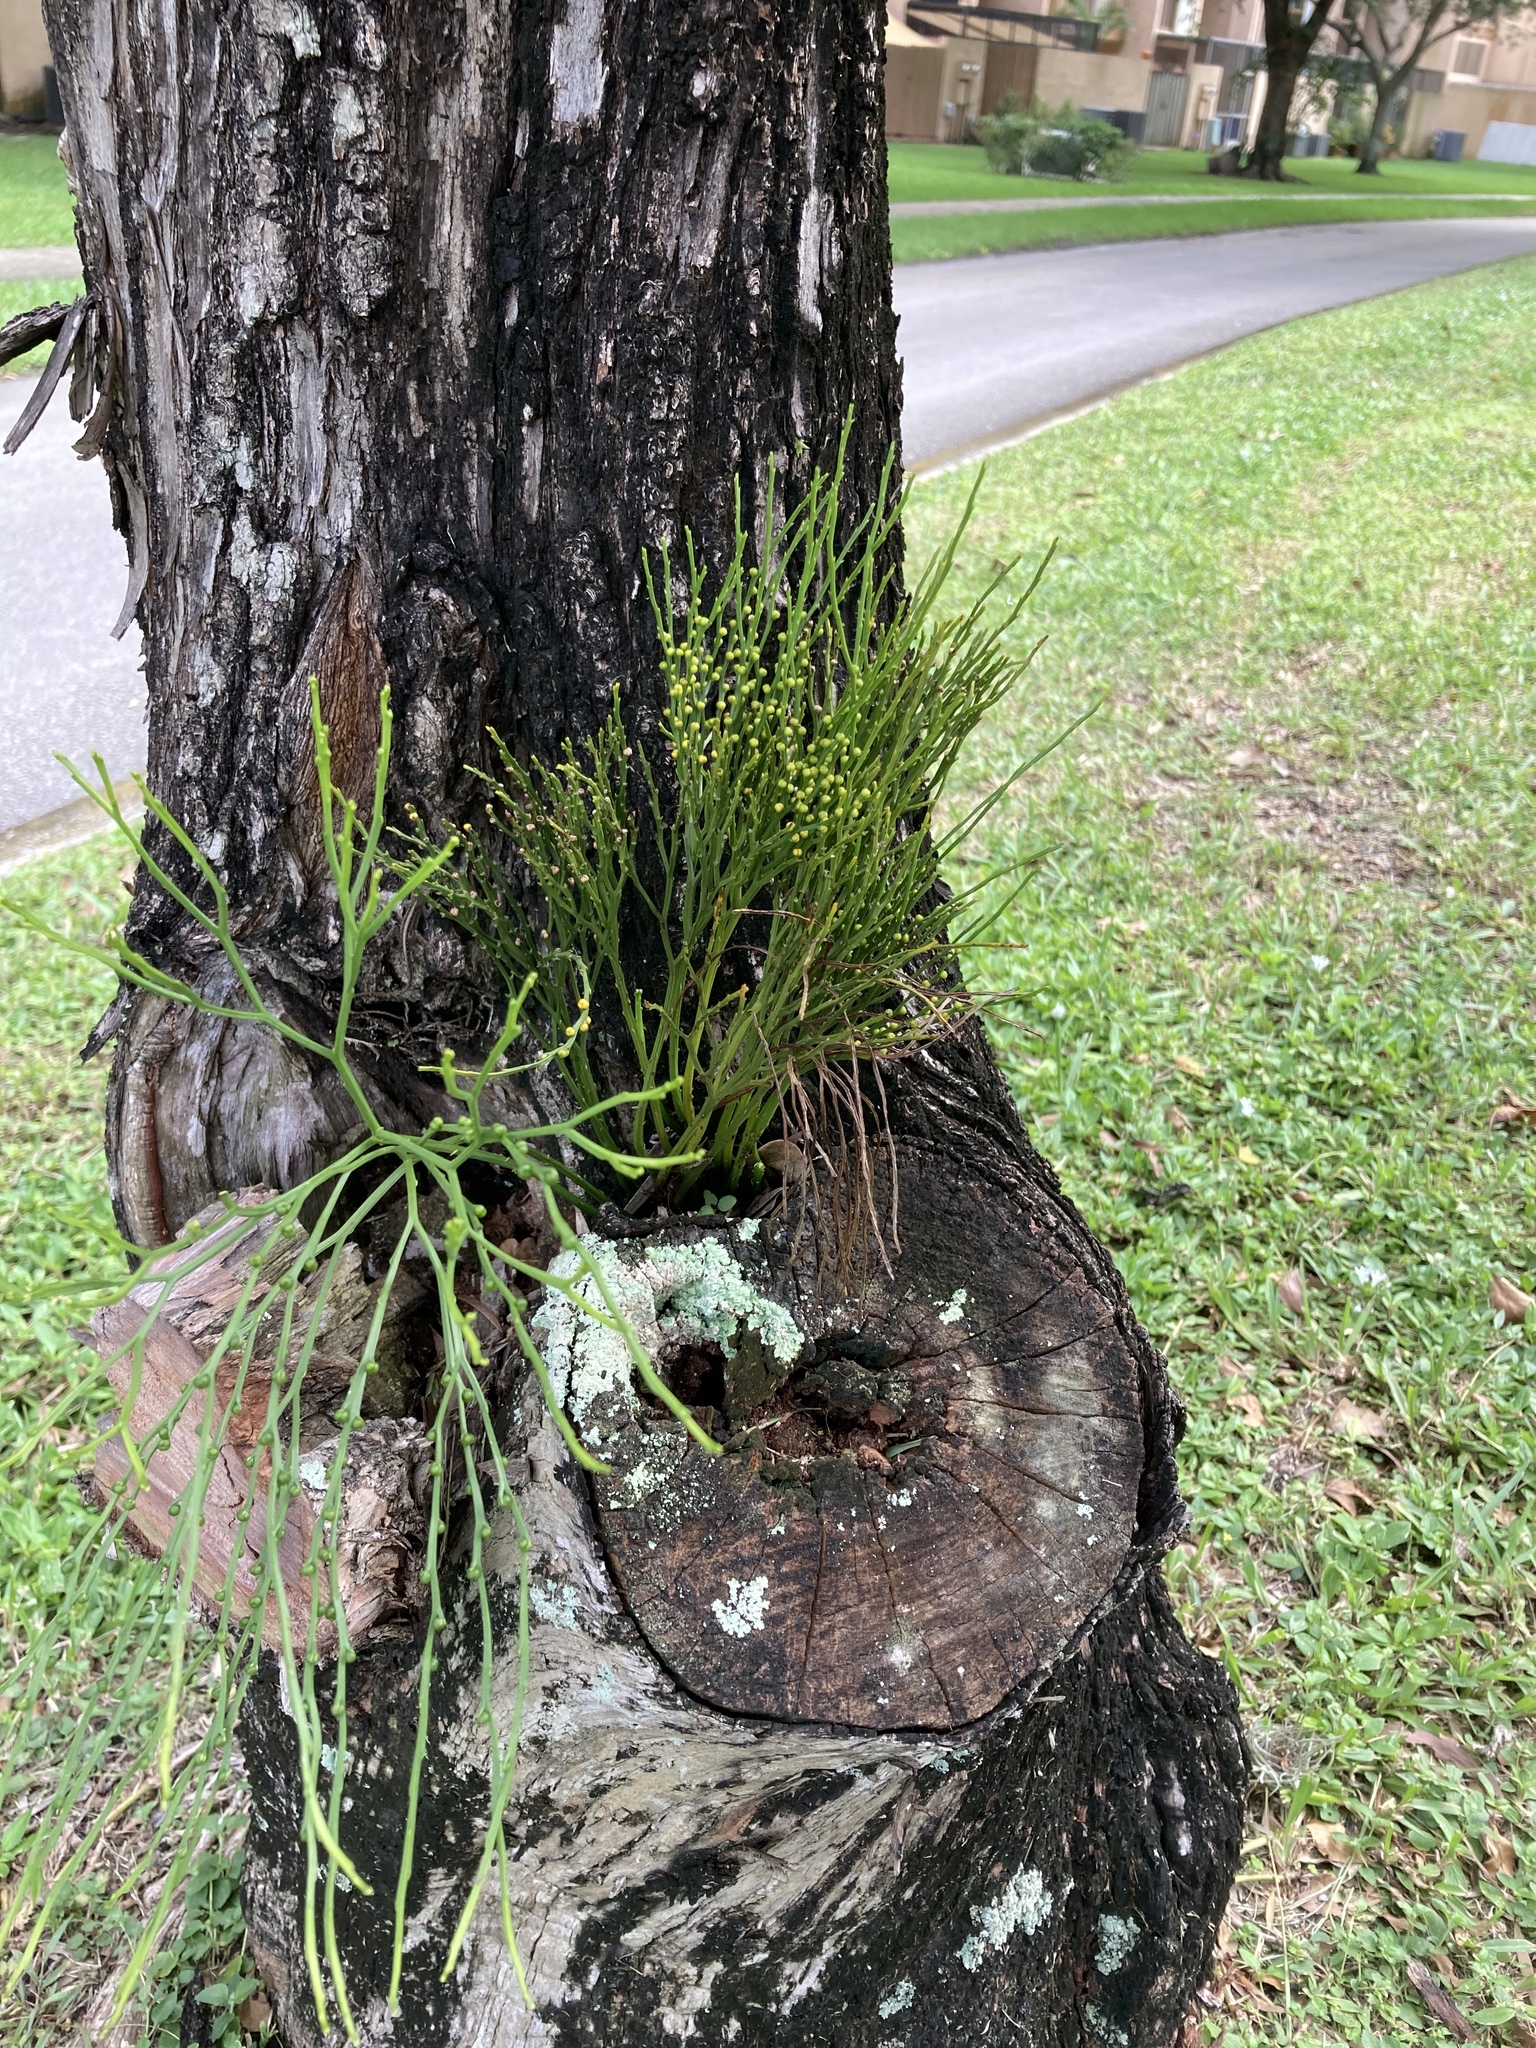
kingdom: Plantae
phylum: Tracheophyta
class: Polypodiopsida
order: Psilotales
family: Psilotaceae
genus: Psilotum
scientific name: Psilotum nudum
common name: Skeleton fork fern
